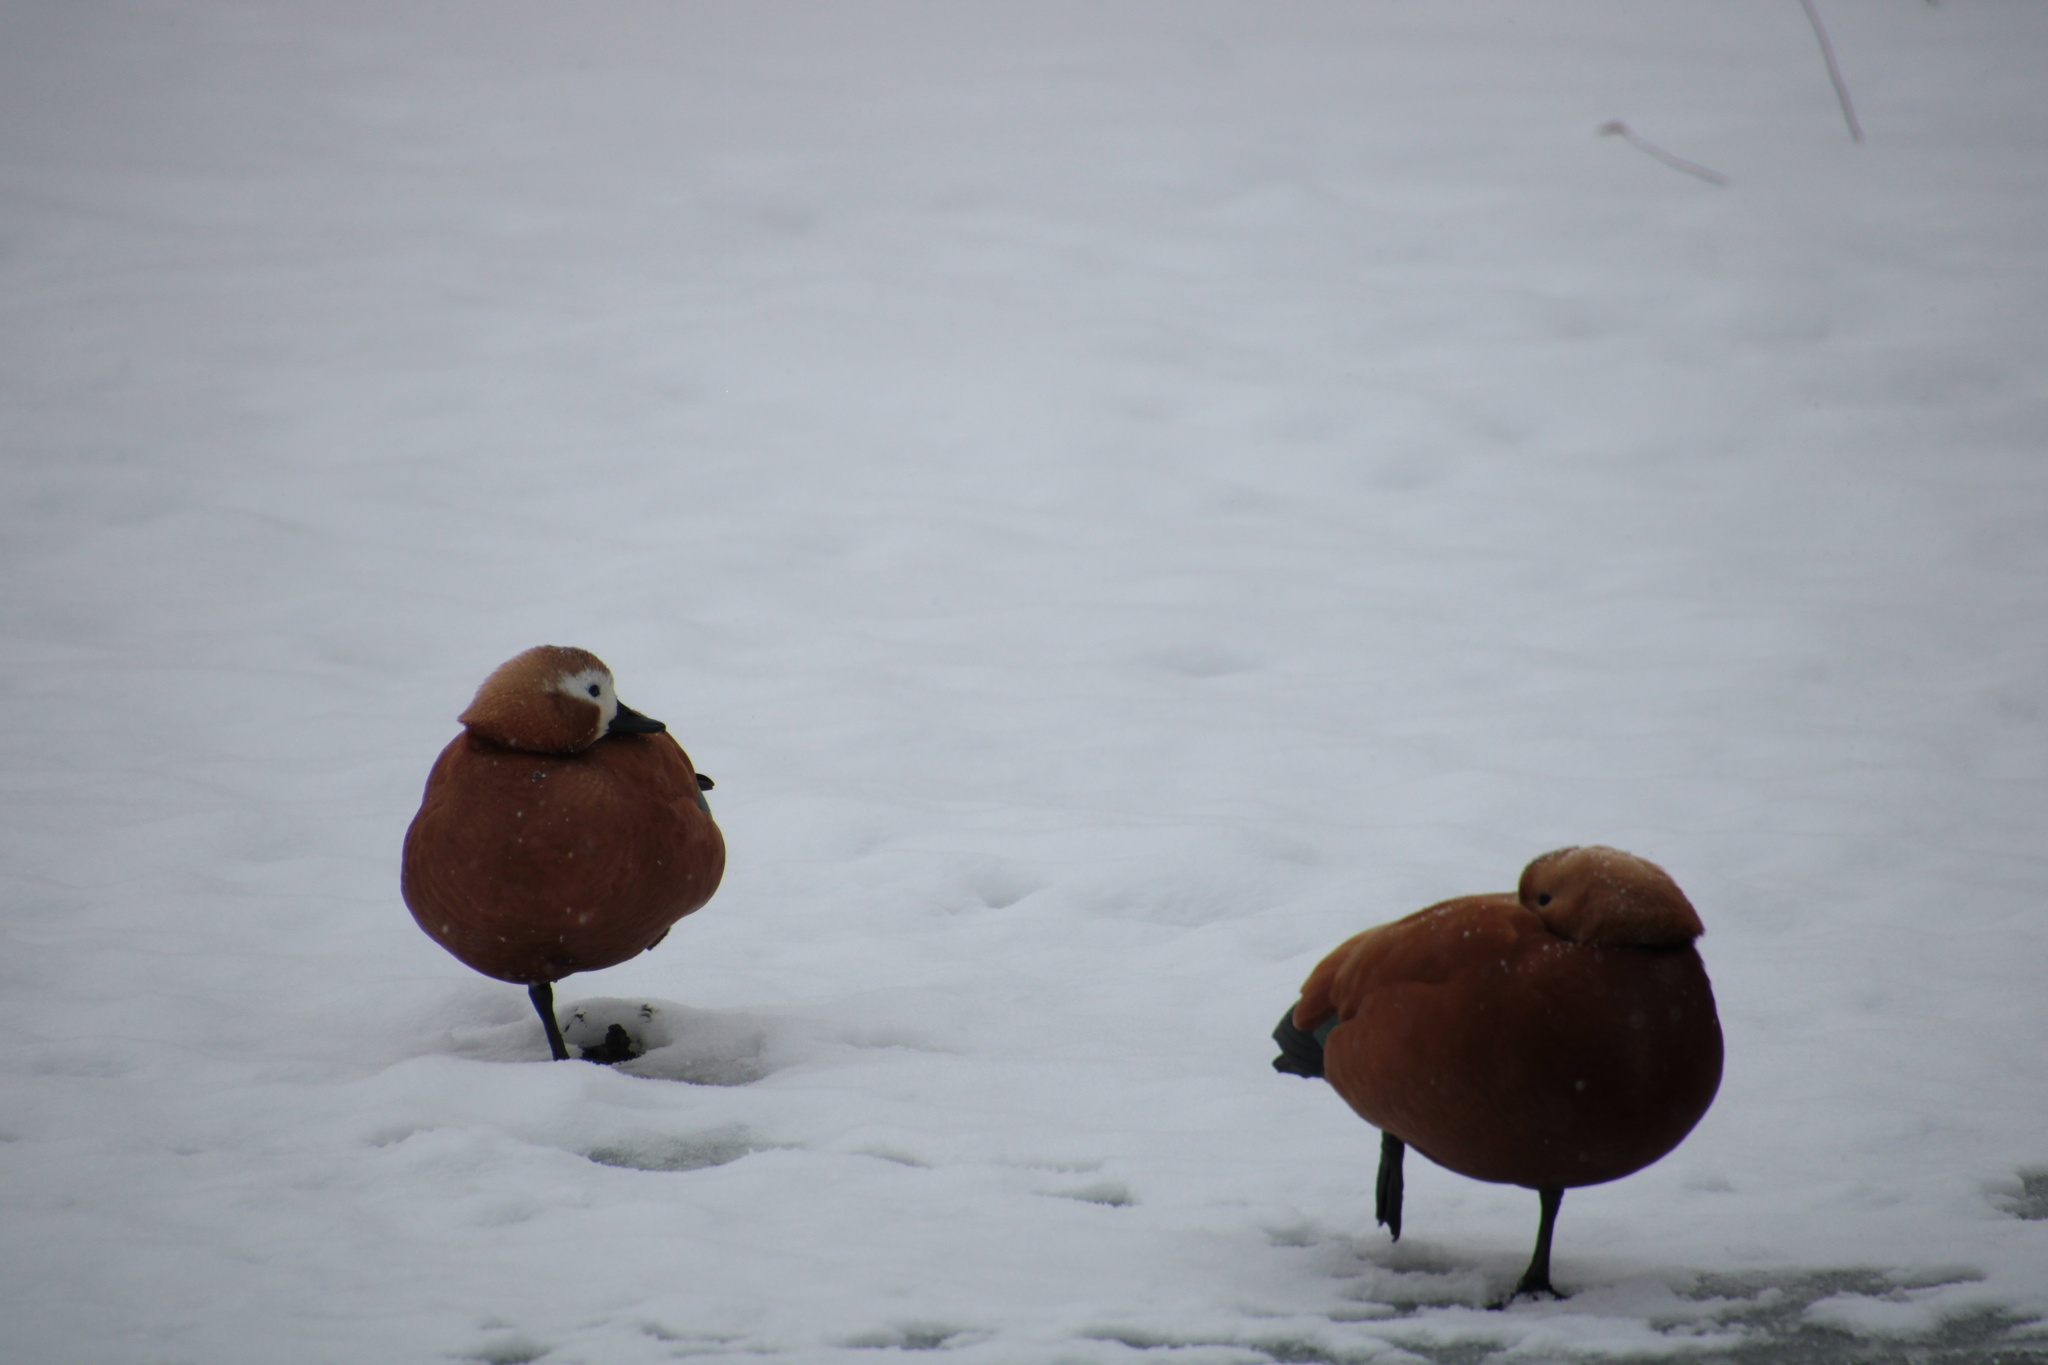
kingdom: Animalia
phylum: Chordata
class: Aves
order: Anseriformes
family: Anatidae
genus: Tadorna
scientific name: Tadorna ferruginea
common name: Ruddy shelduck
